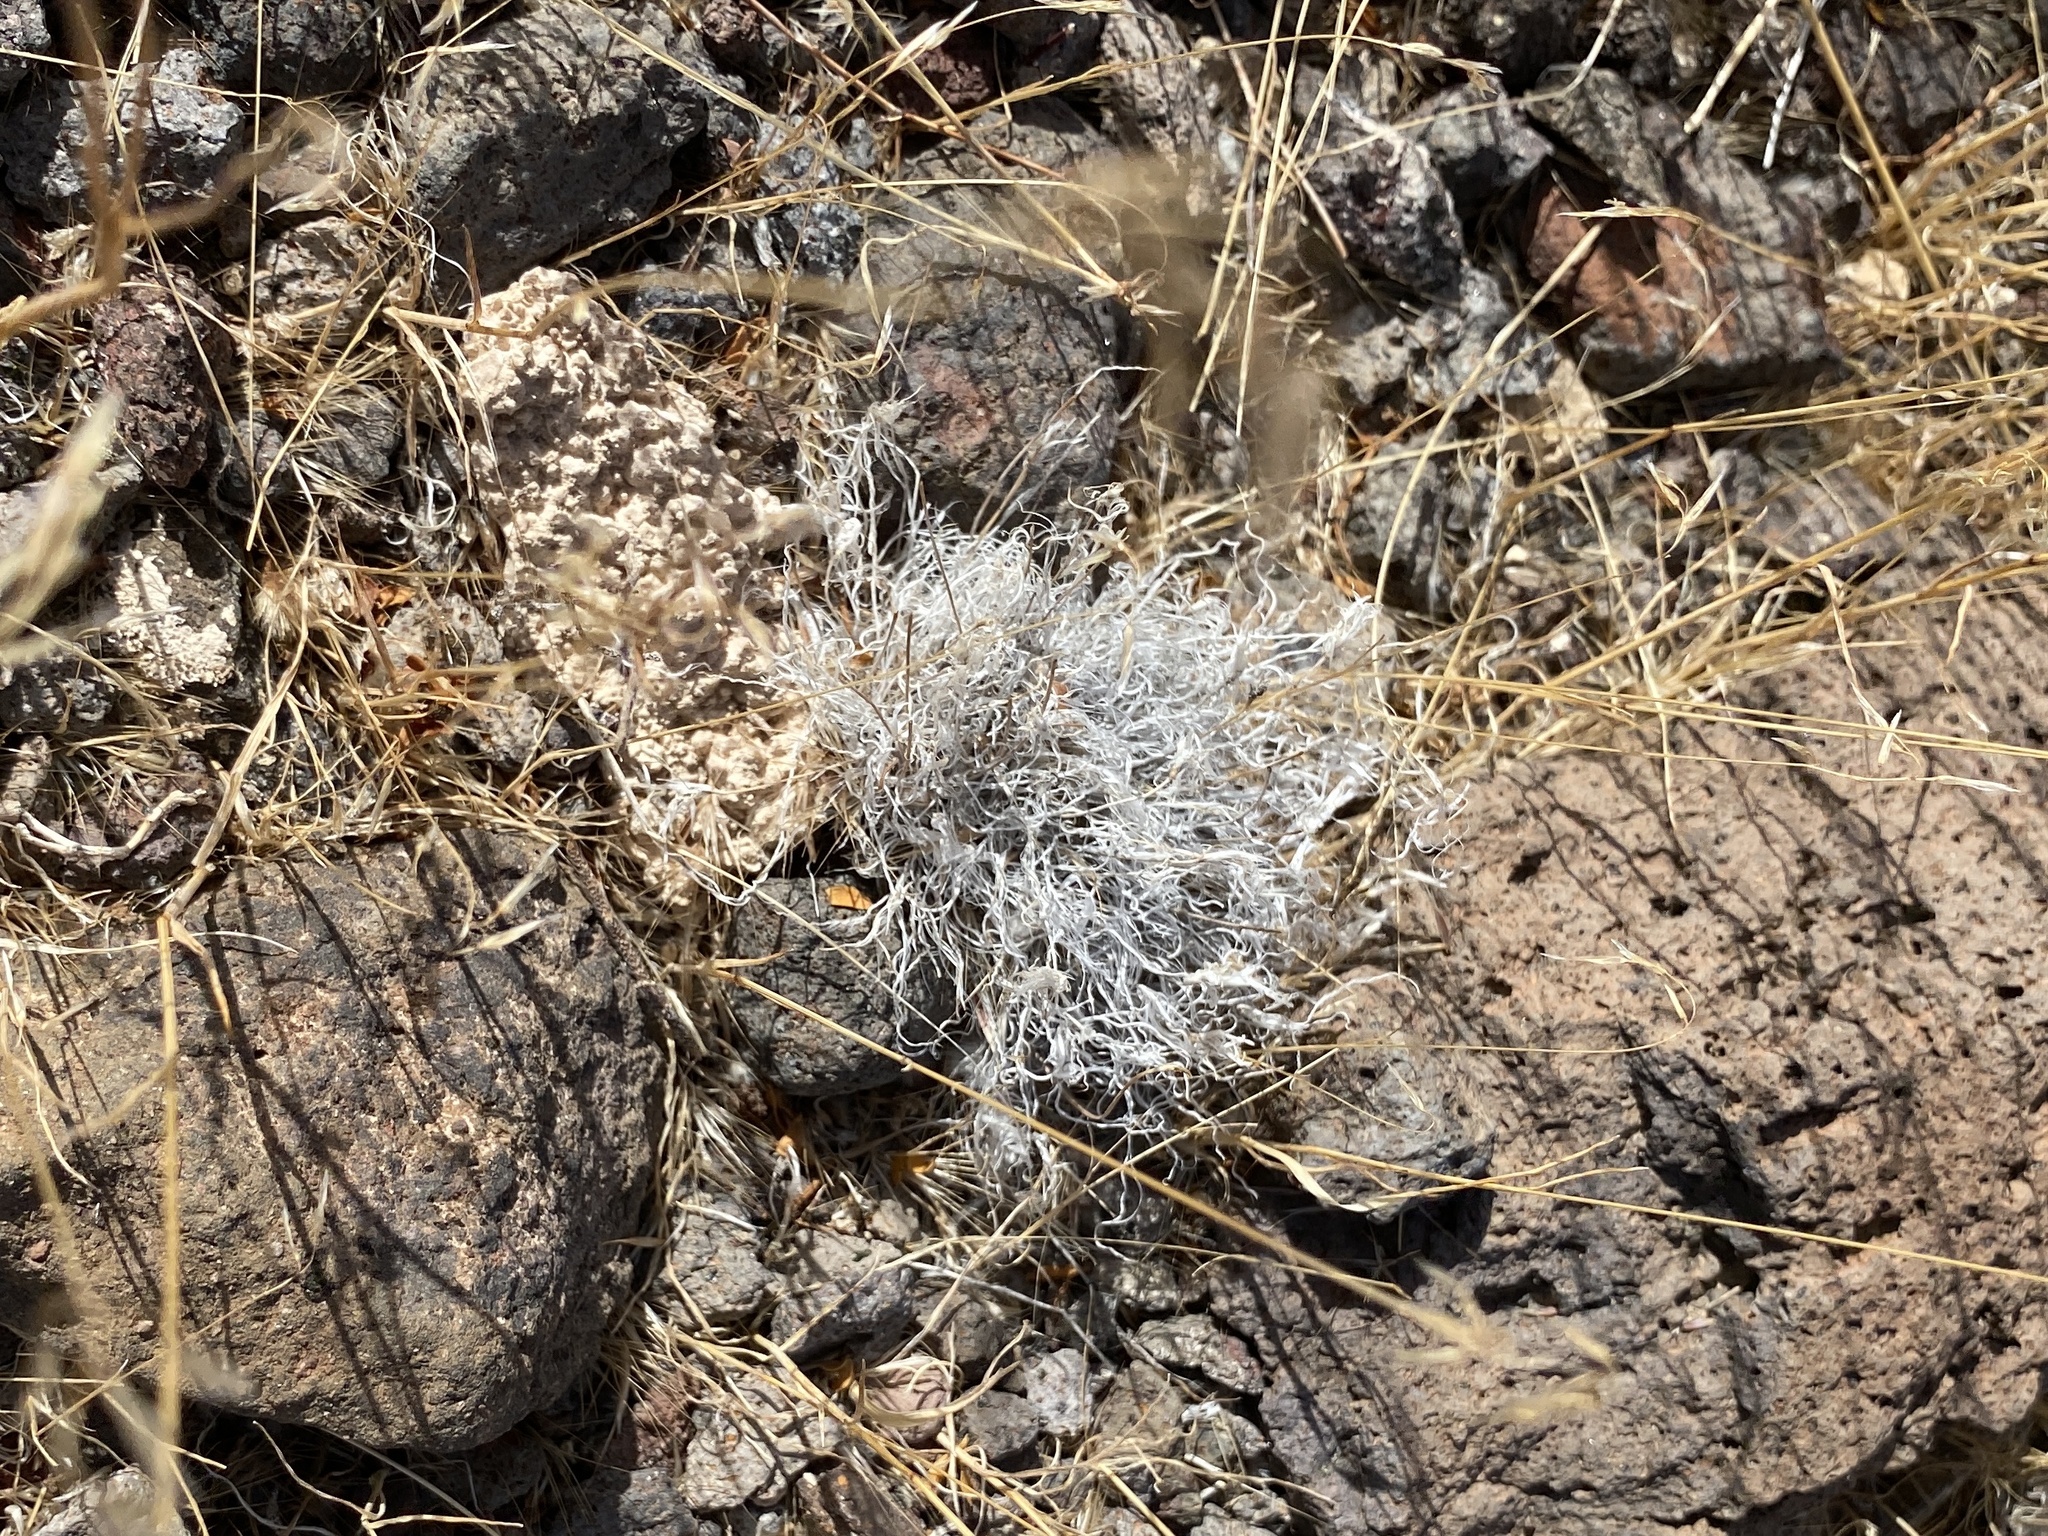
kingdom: Plantae
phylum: Tracheophyta
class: Liliopsida
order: Poales
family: Poaceae
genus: Dasyochloa
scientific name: Dasyochloa pulchella
